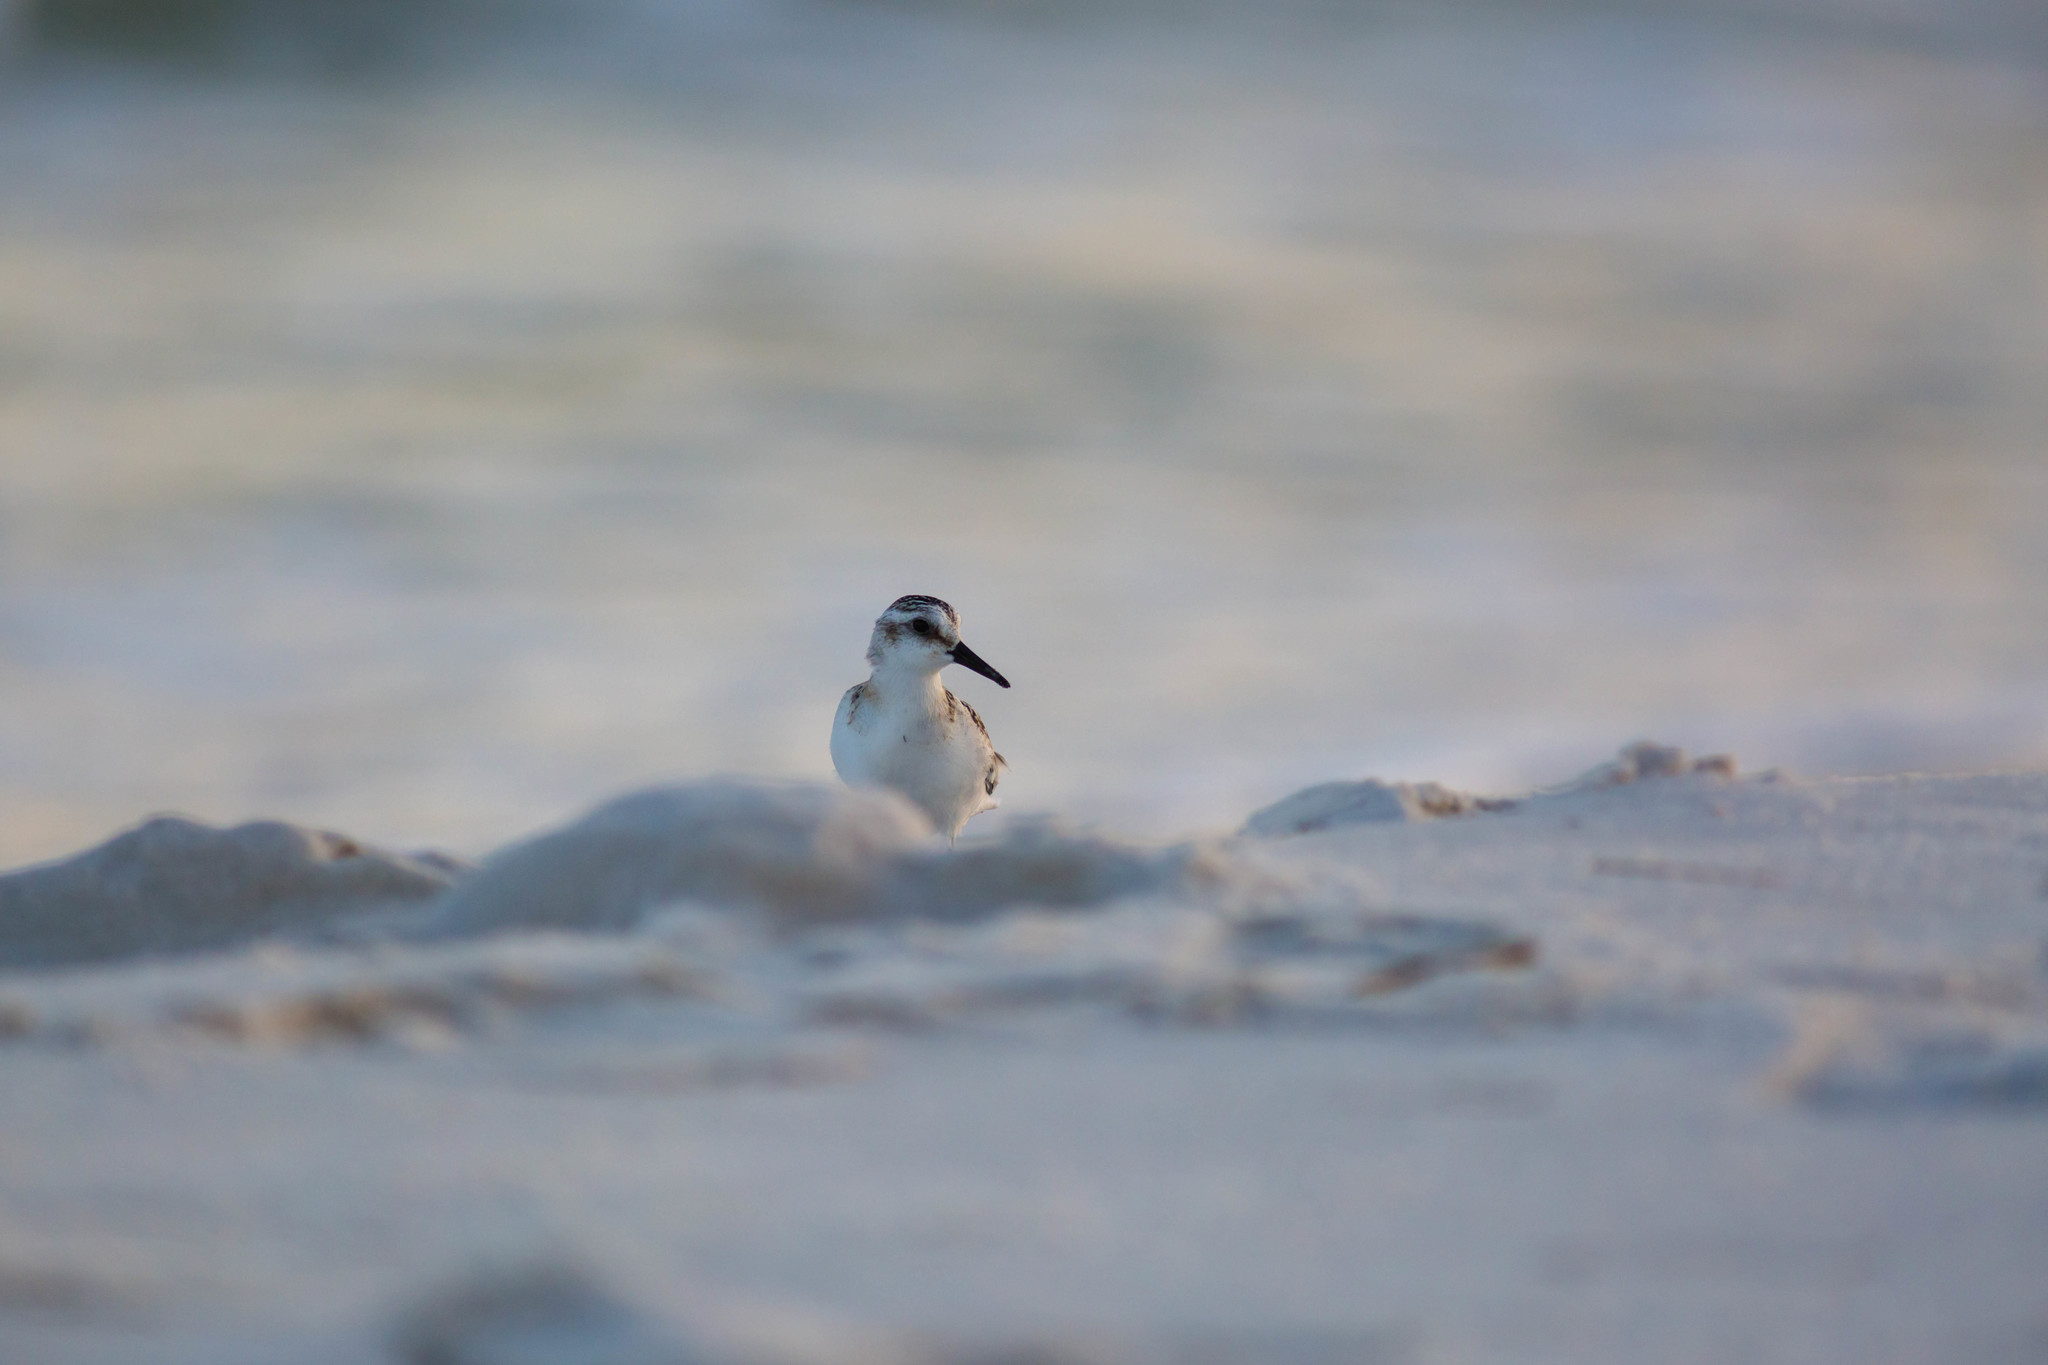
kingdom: Animalia
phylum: Chordata
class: Aves
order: Charadriiformes
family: Scolopacidae
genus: Calidris
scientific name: Calidris alba
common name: Sanderling
